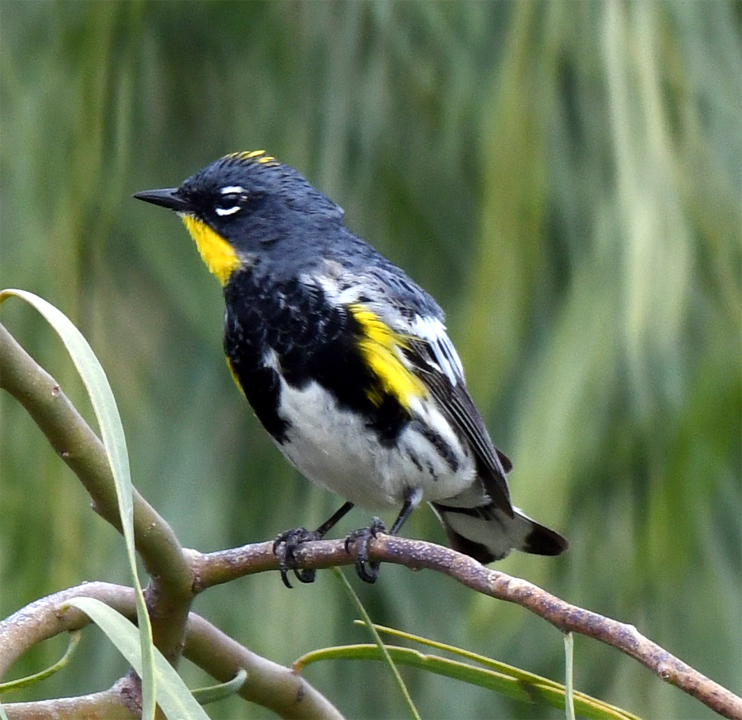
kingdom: Animalia
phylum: Chordata
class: Aves
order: Passeriformes
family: Parulidae
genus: Setophaga
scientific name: Setophaga coronata
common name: Myrtle warbler
